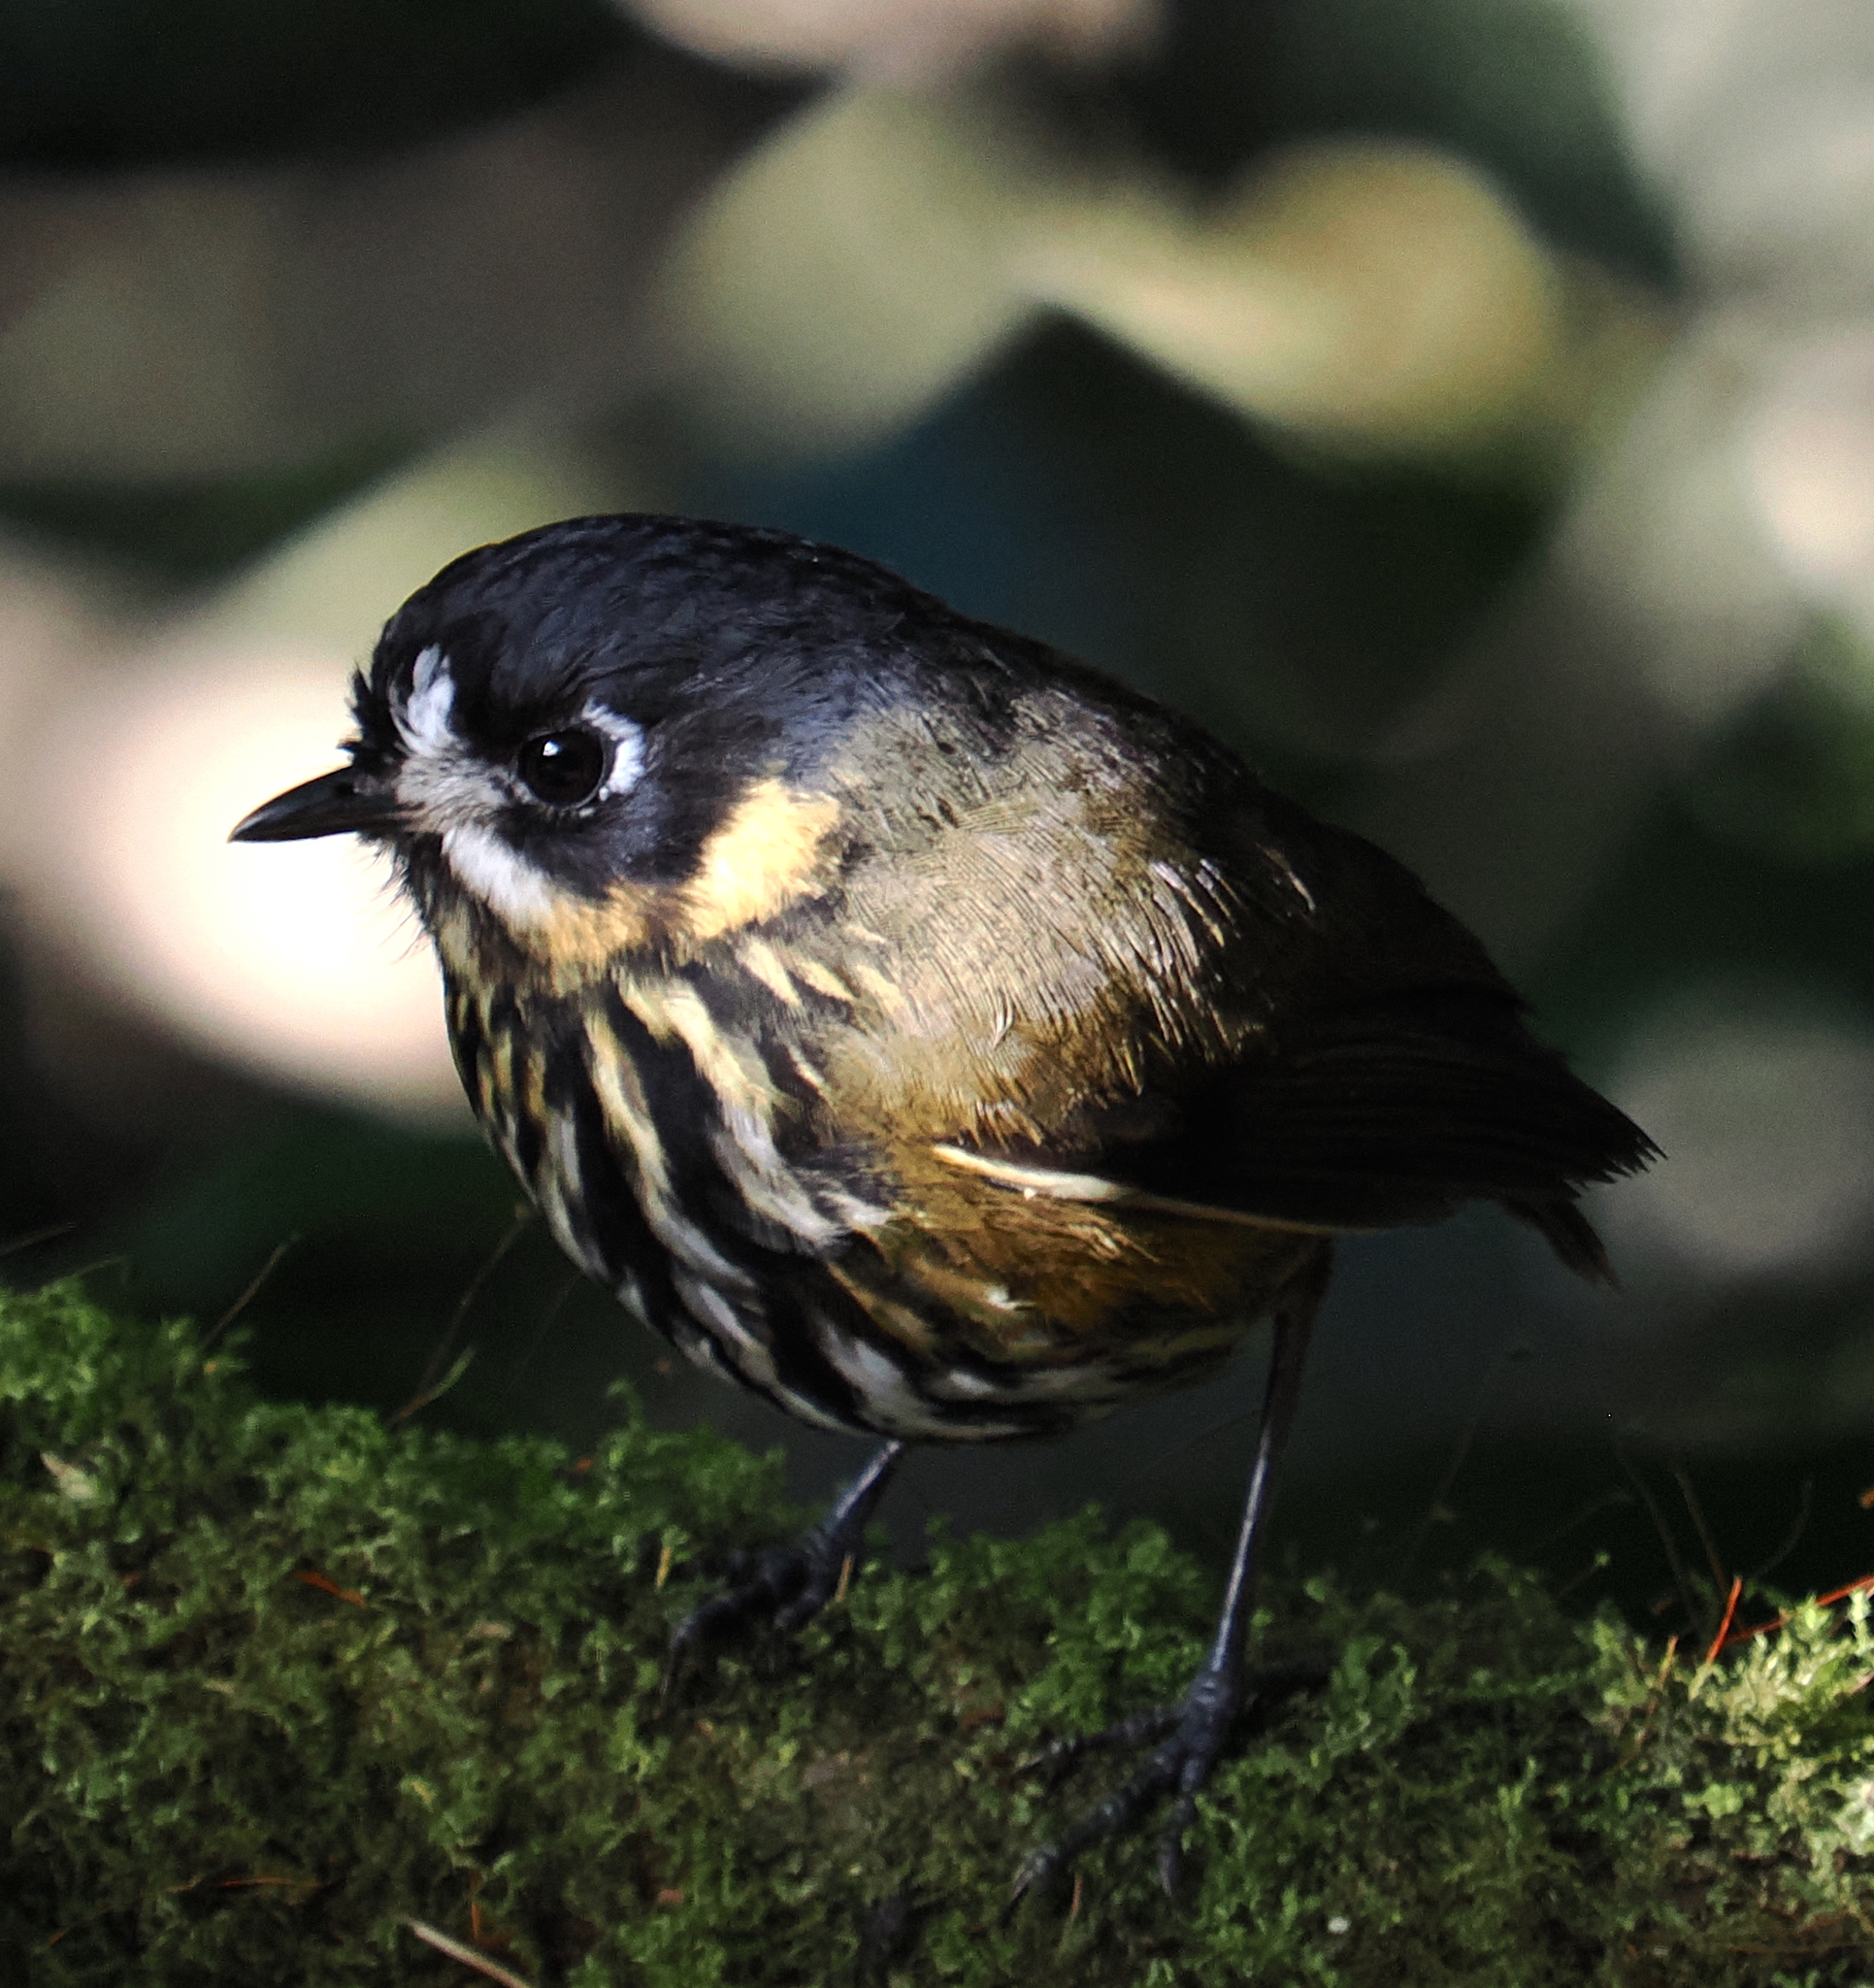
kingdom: Animalia
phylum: Chordata
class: Aves
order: Passeriformes
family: Grallariidae
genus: Grallaricula
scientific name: Grallaricula lineifrons
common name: Crescent-faced antpitta
